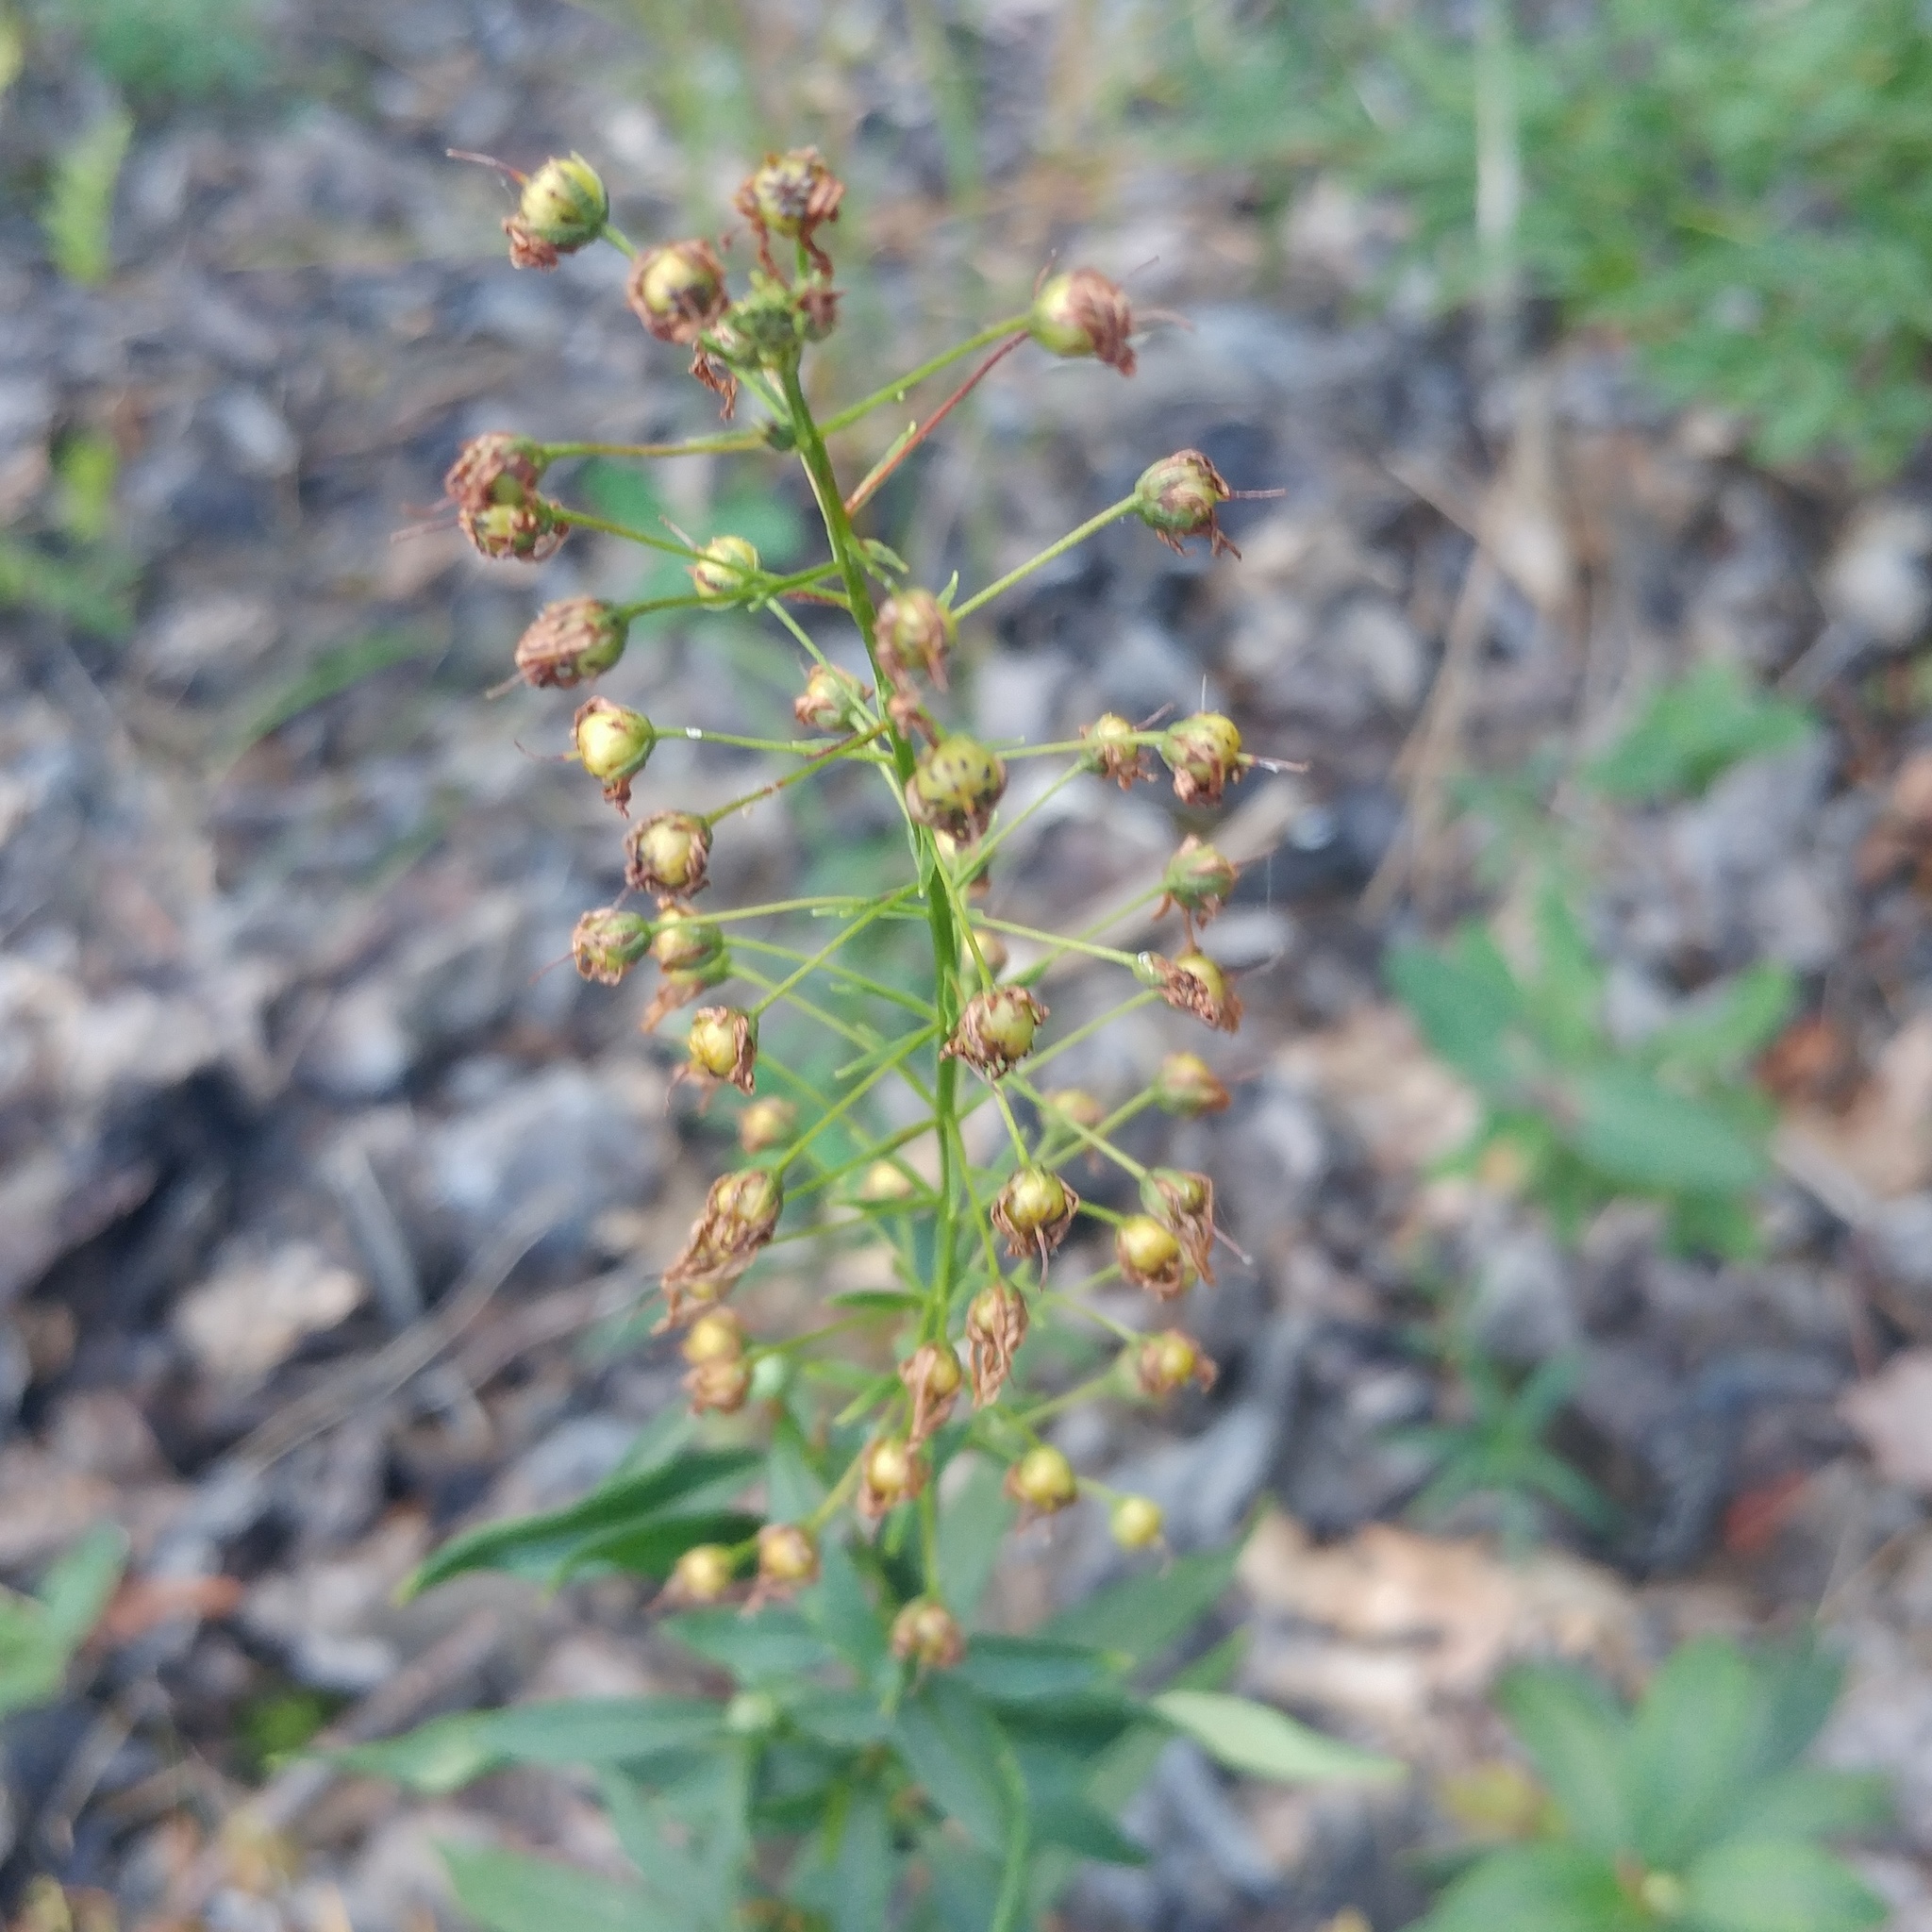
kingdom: Plantae
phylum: Tracheophyta
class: Magnoliopsida
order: Ericales
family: Primulaceae
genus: Lysimachia
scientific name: Lysimachia terrestris
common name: Lake loosestrife
